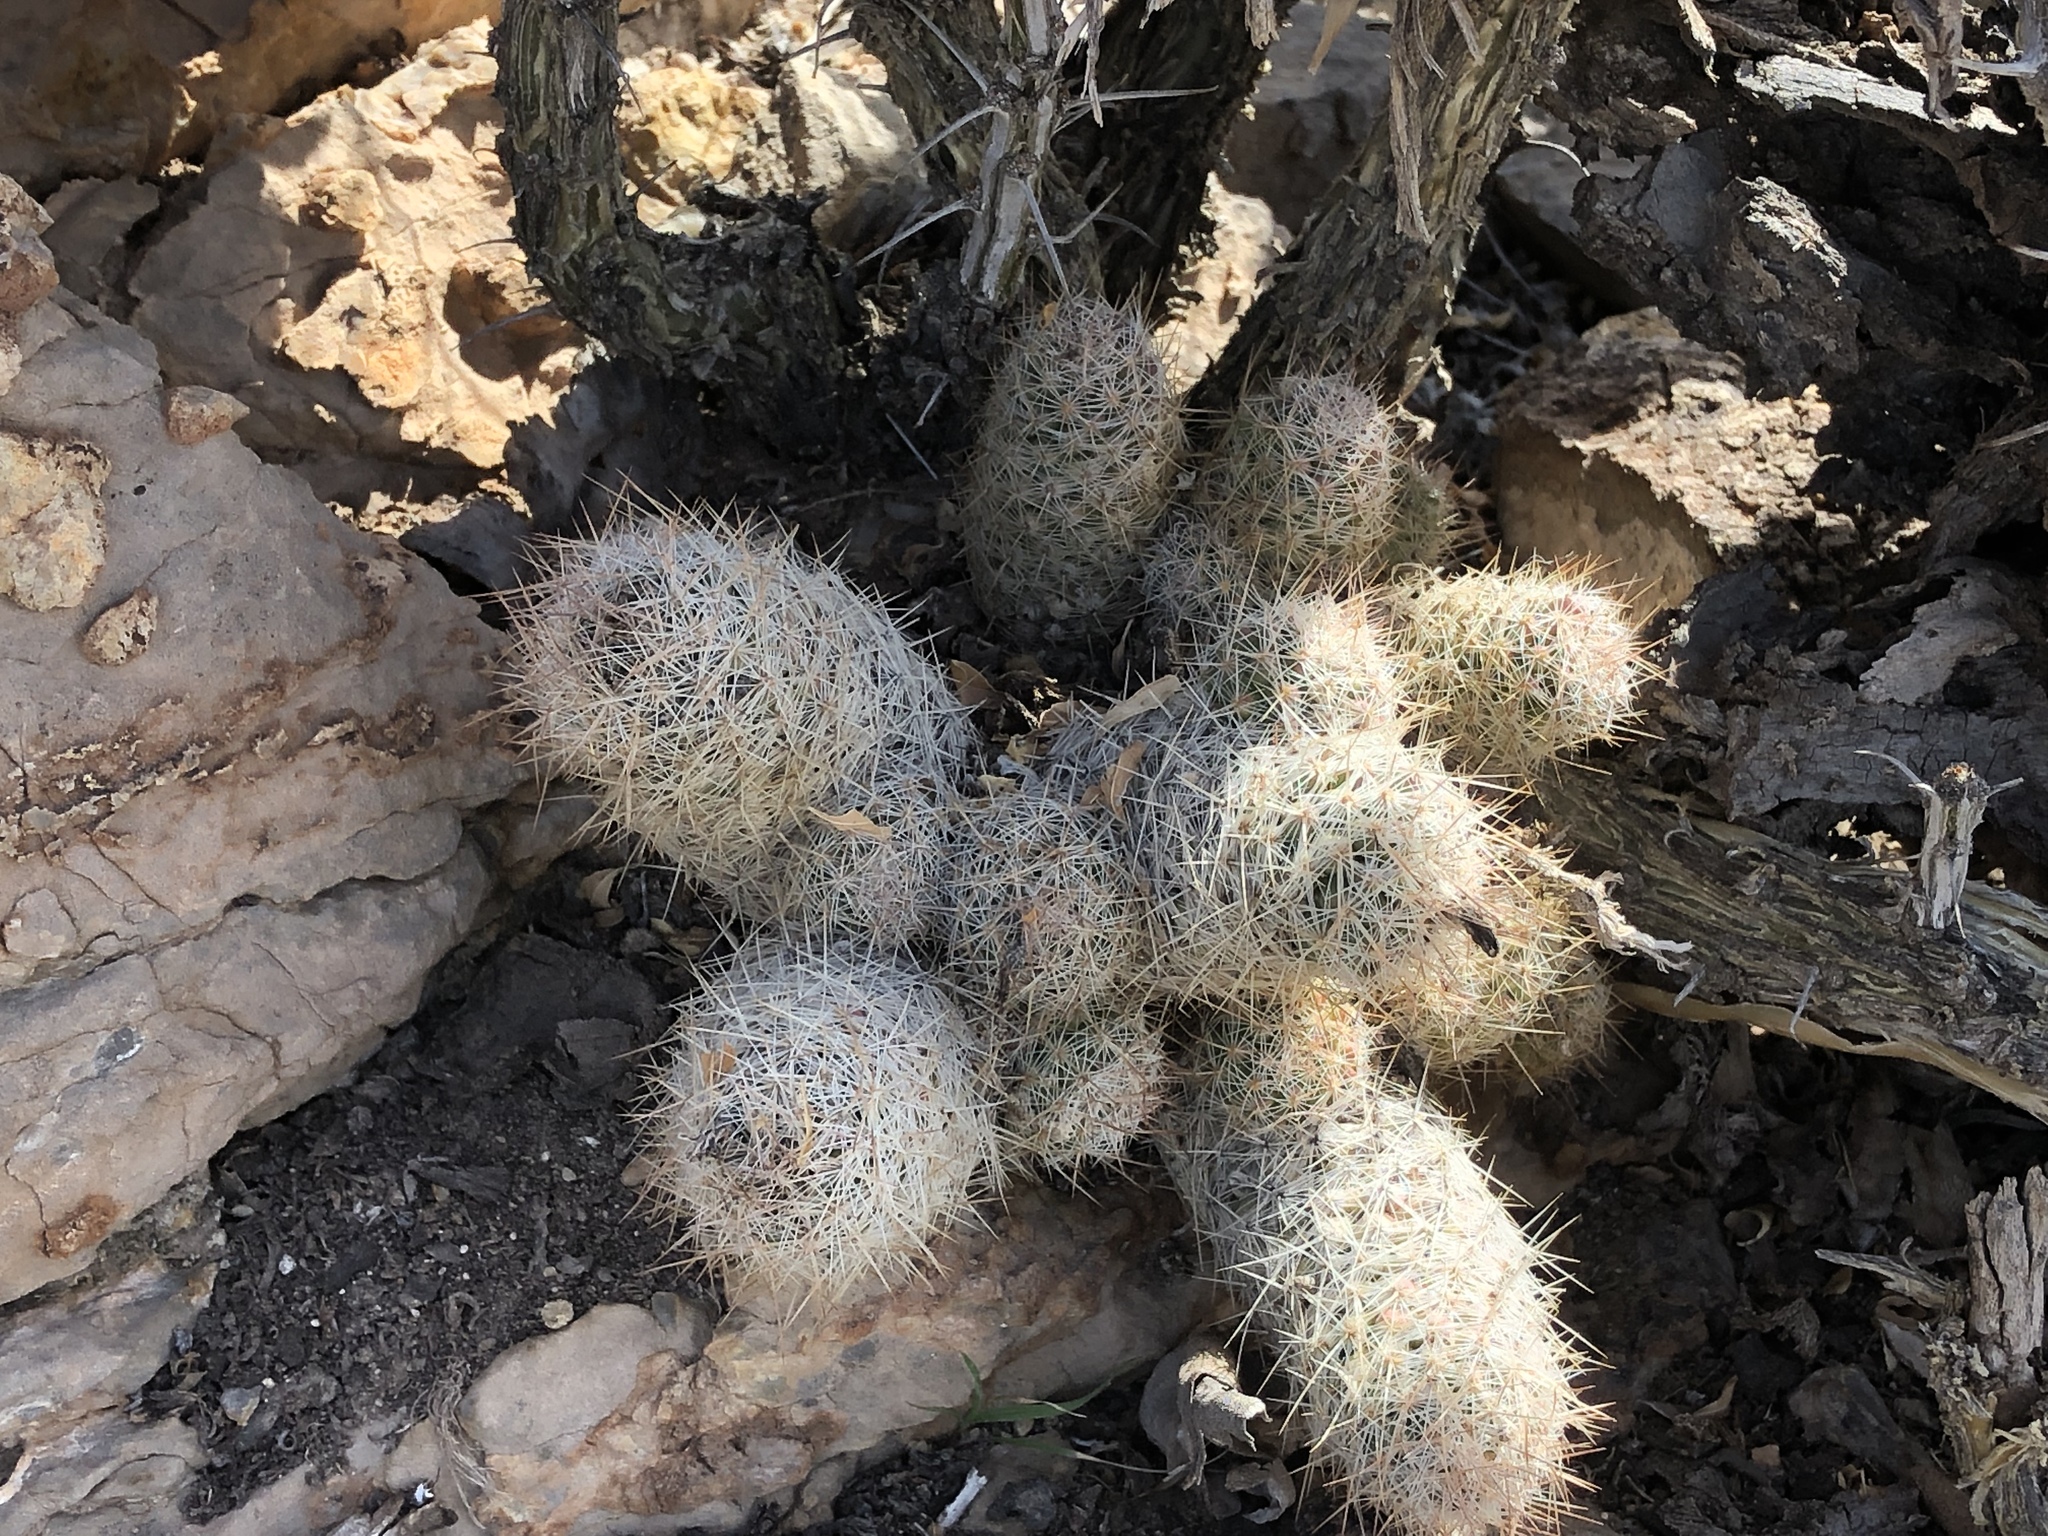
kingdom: Plantae
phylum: Tracheophyta
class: Magnoliopsida
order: Caryophyllales
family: Cactaceae
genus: Pelecyphora
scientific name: Pelecyphora tuberculosa
